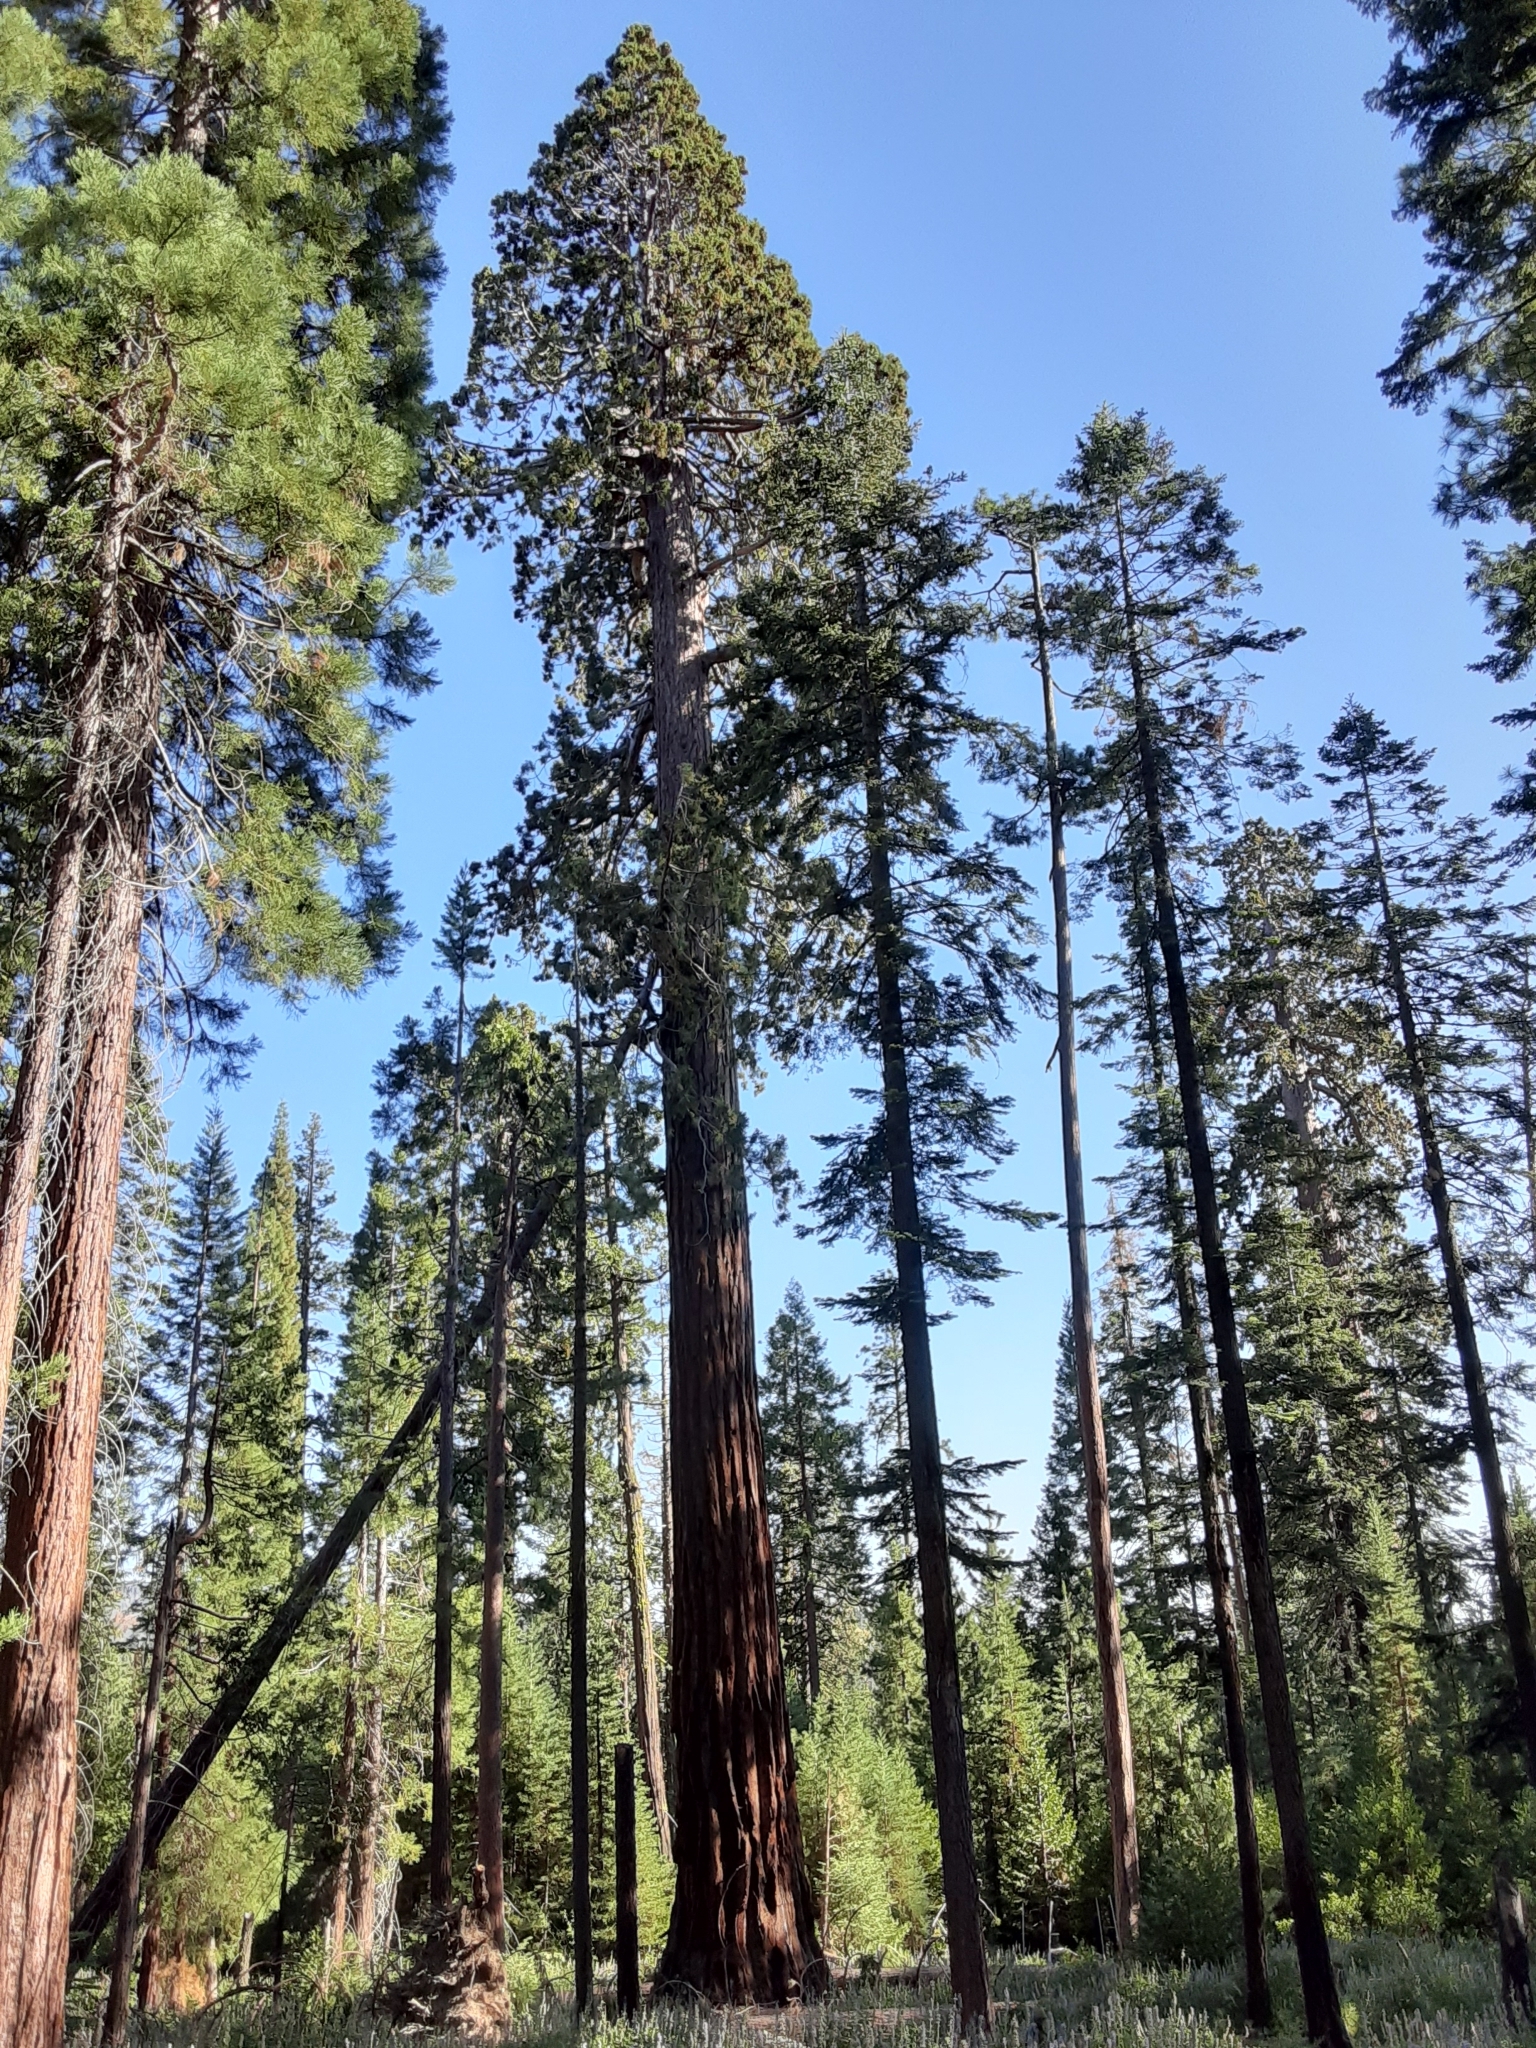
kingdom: Plantae
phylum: Tracheophyta
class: Pinopsida
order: Pinales
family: Cupressaceae
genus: Sequoiadendron
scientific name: Sequoiadendron giganteum
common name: Wellingtonia
